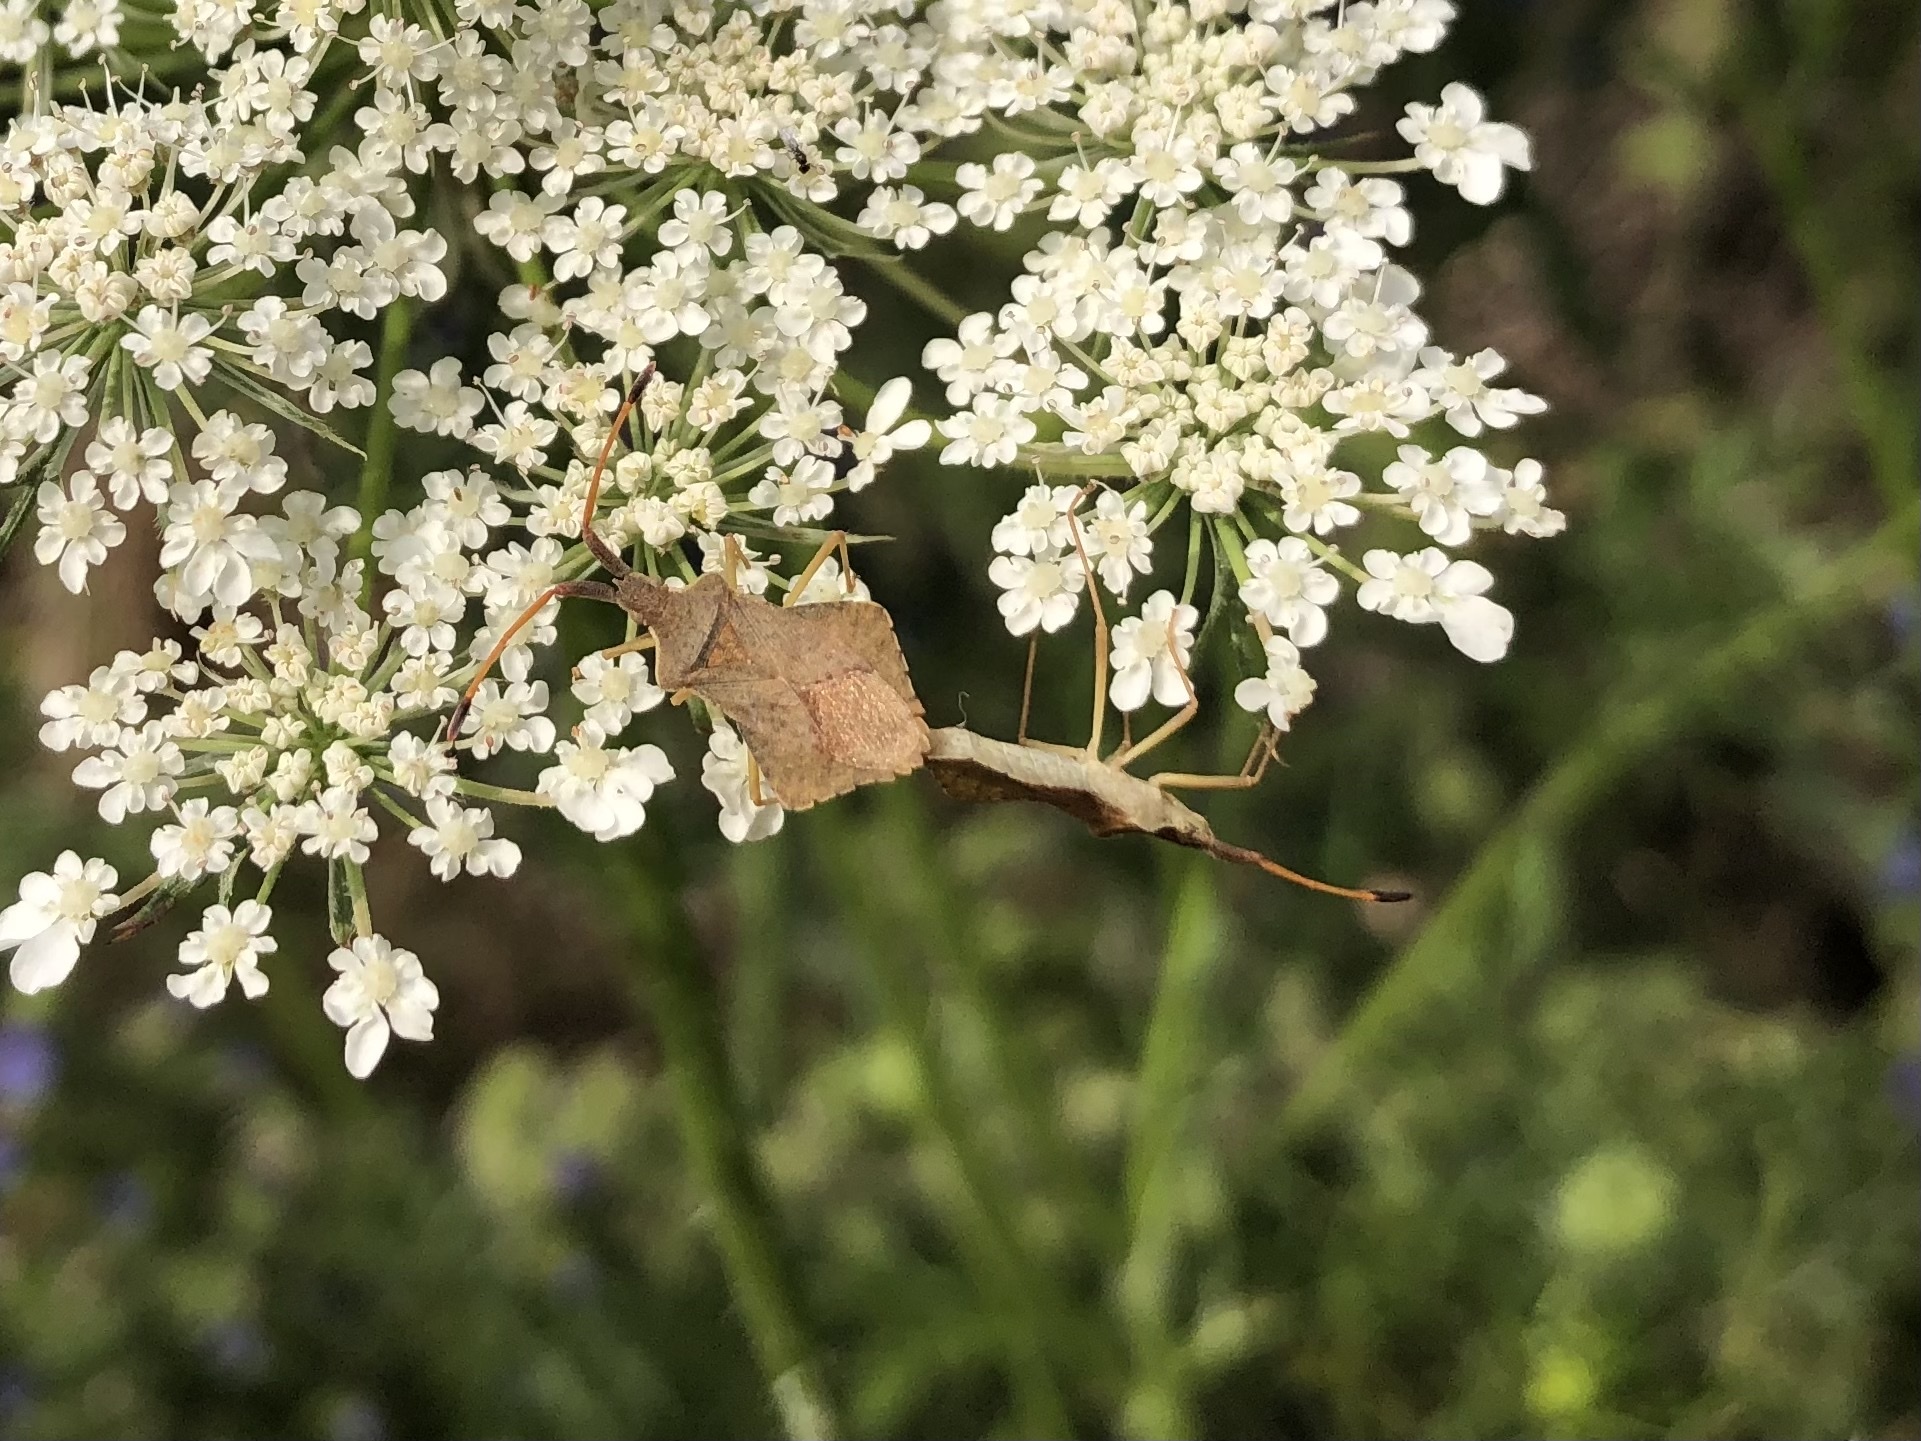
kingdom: Animalia
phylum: Arthropoda
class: Insecta
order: Hemiptera
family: Coreidae
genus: Syromastus
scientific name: Syromastus rhombeus
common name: Rhombic leatherbug
